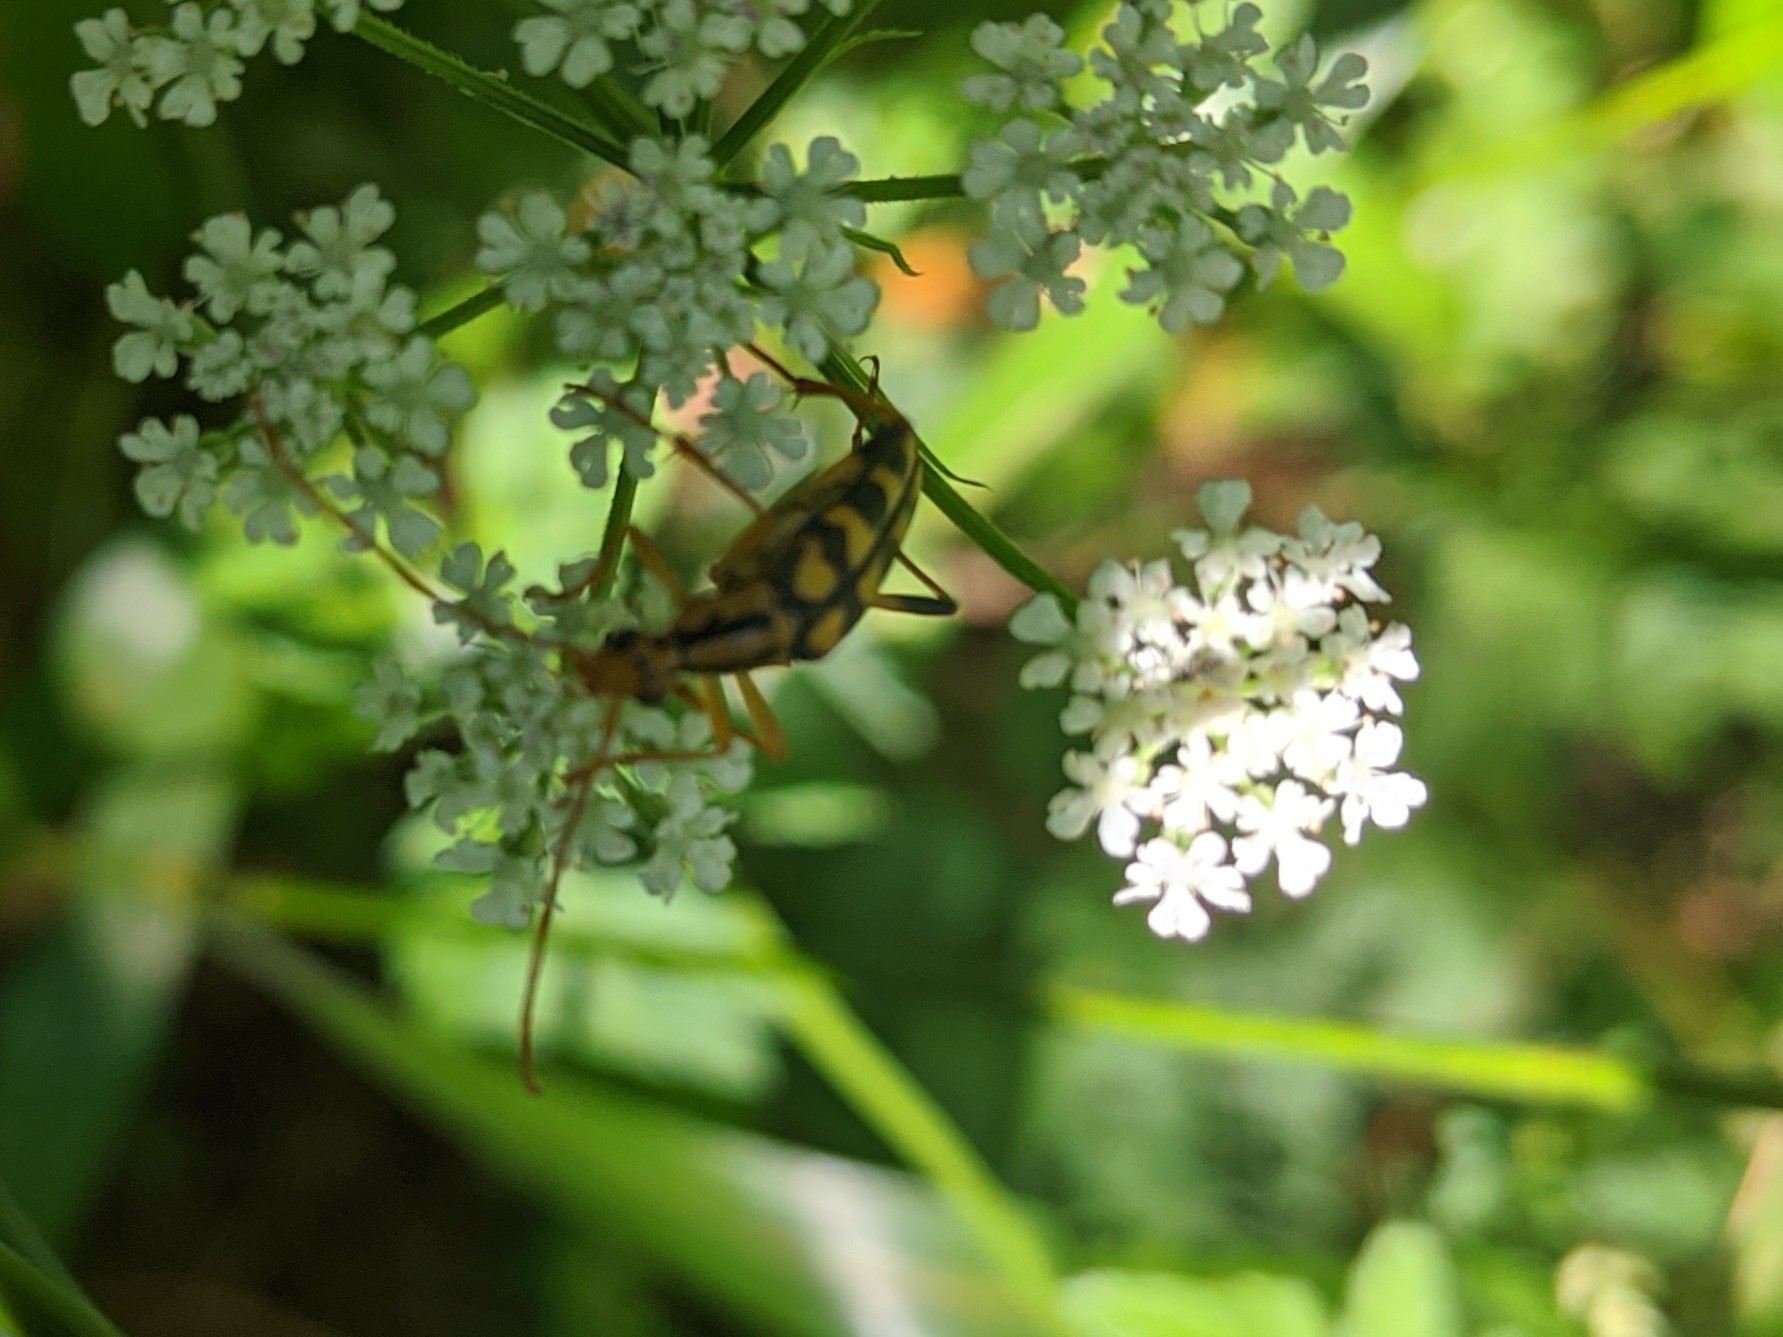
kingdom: Animalia
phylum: Arthropoda
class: Insecta
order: Coleoptera
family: Cerambycidae
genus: Strangalia
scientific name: Strangalia luteicornis
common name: Yellow-horned flower longhorn beetle
